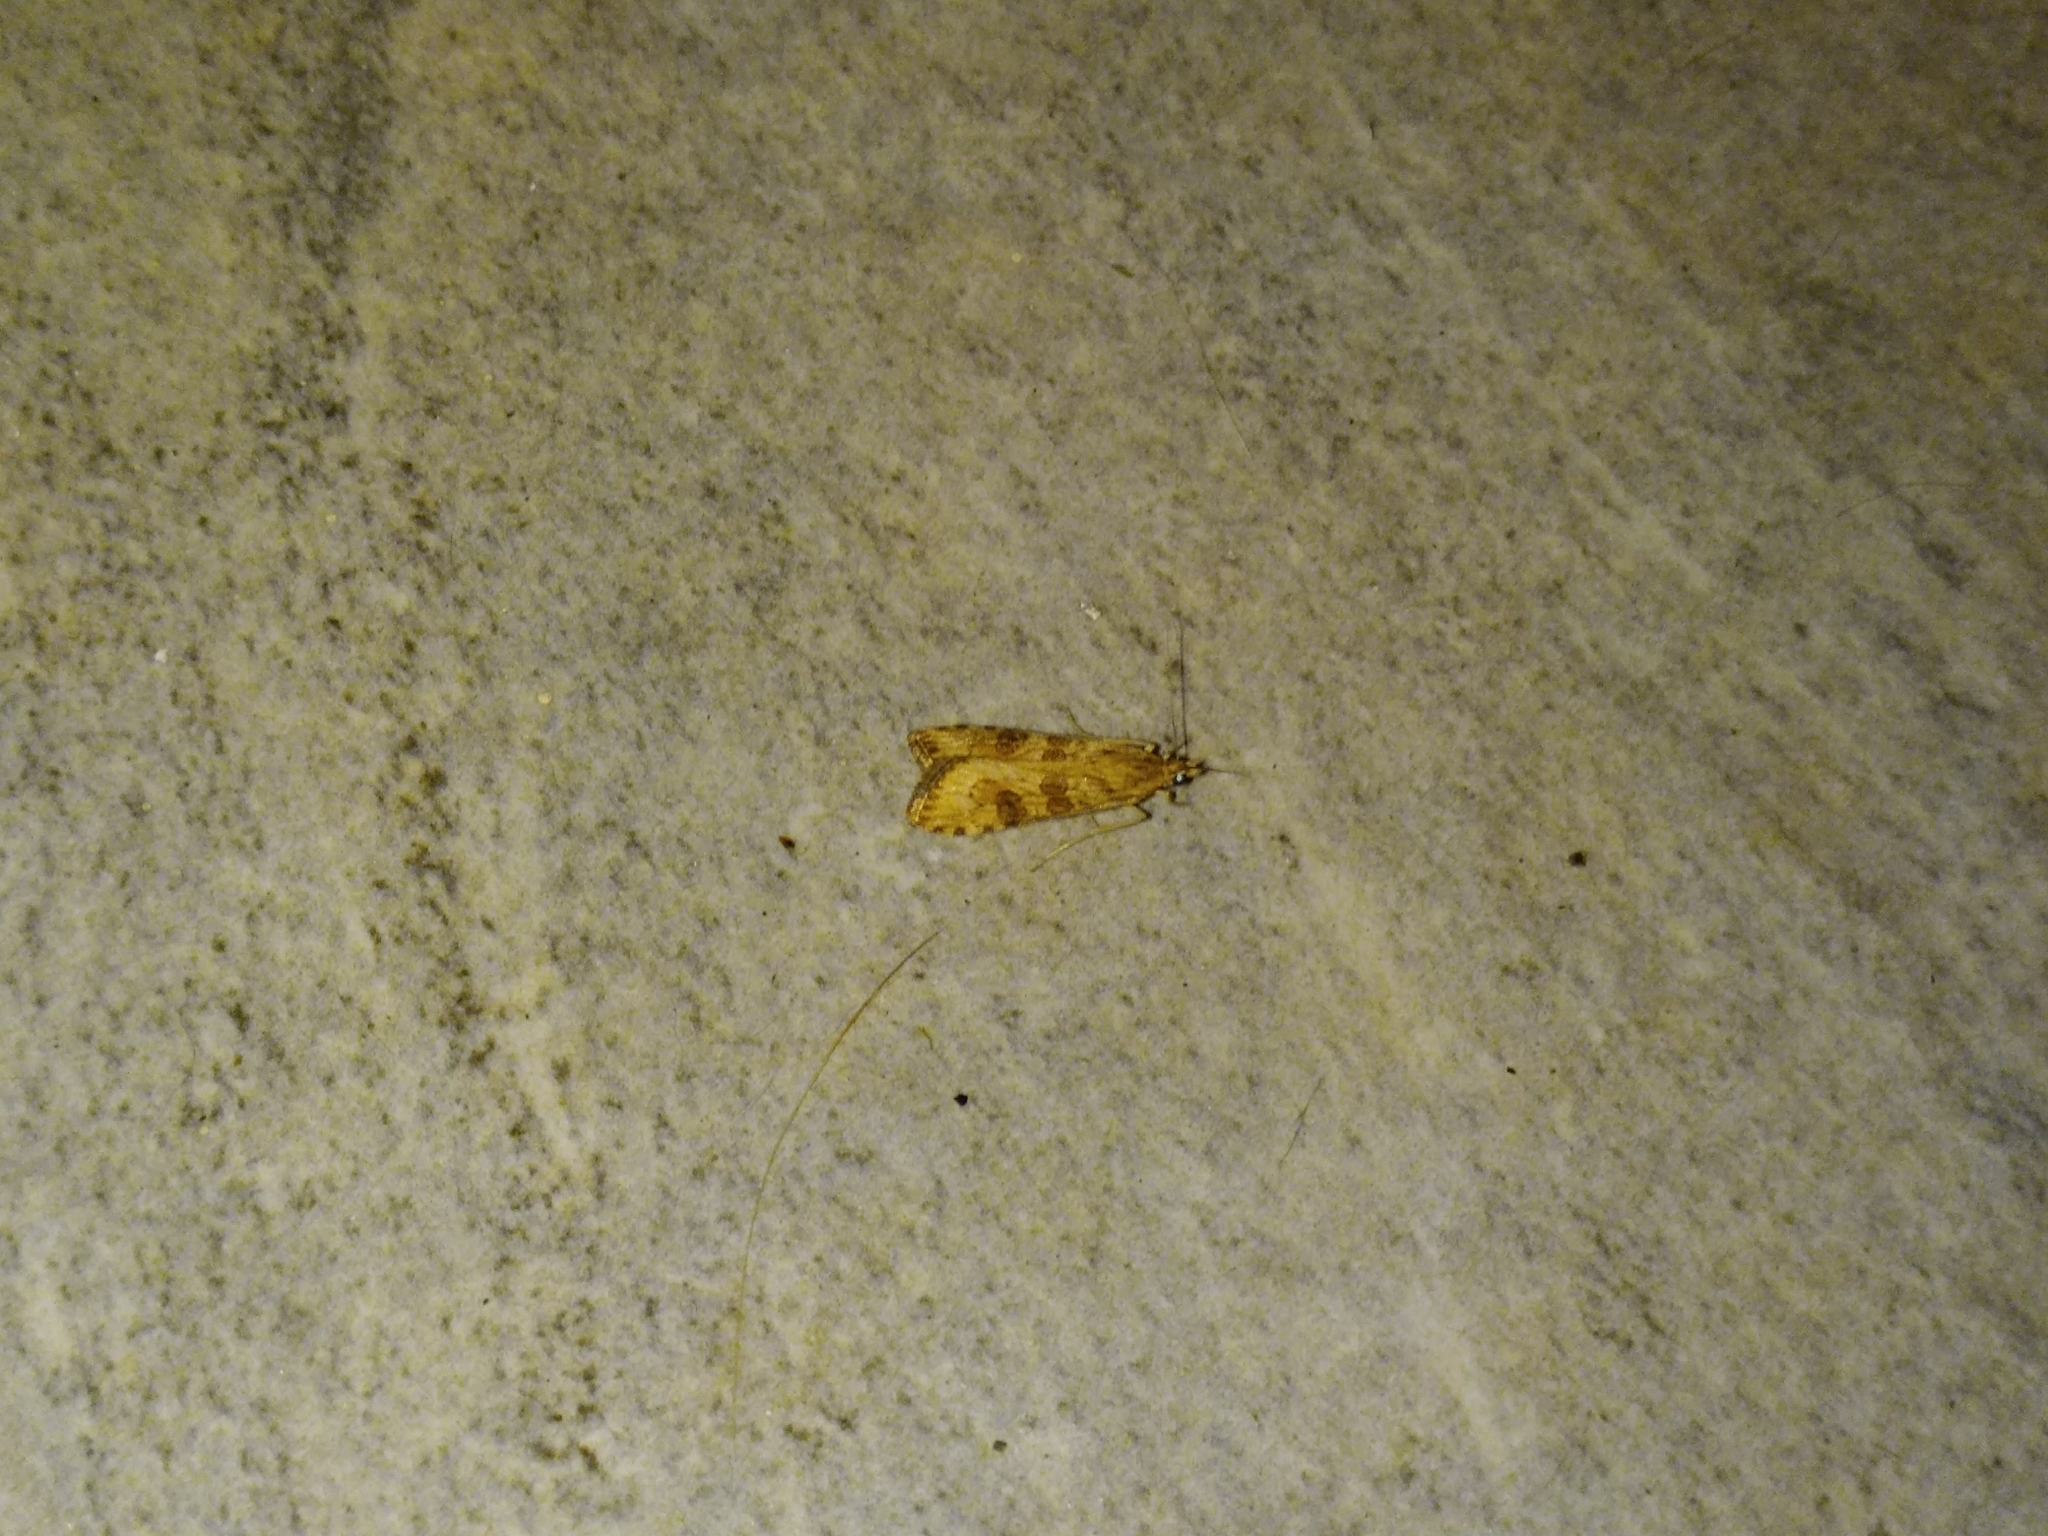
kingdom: Animalia
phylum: Arthropoda
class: Insecta
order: Lepidoptera
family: Crambidae
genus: Nomophila
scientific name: Nomophila noctuella
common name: Rush veneer
